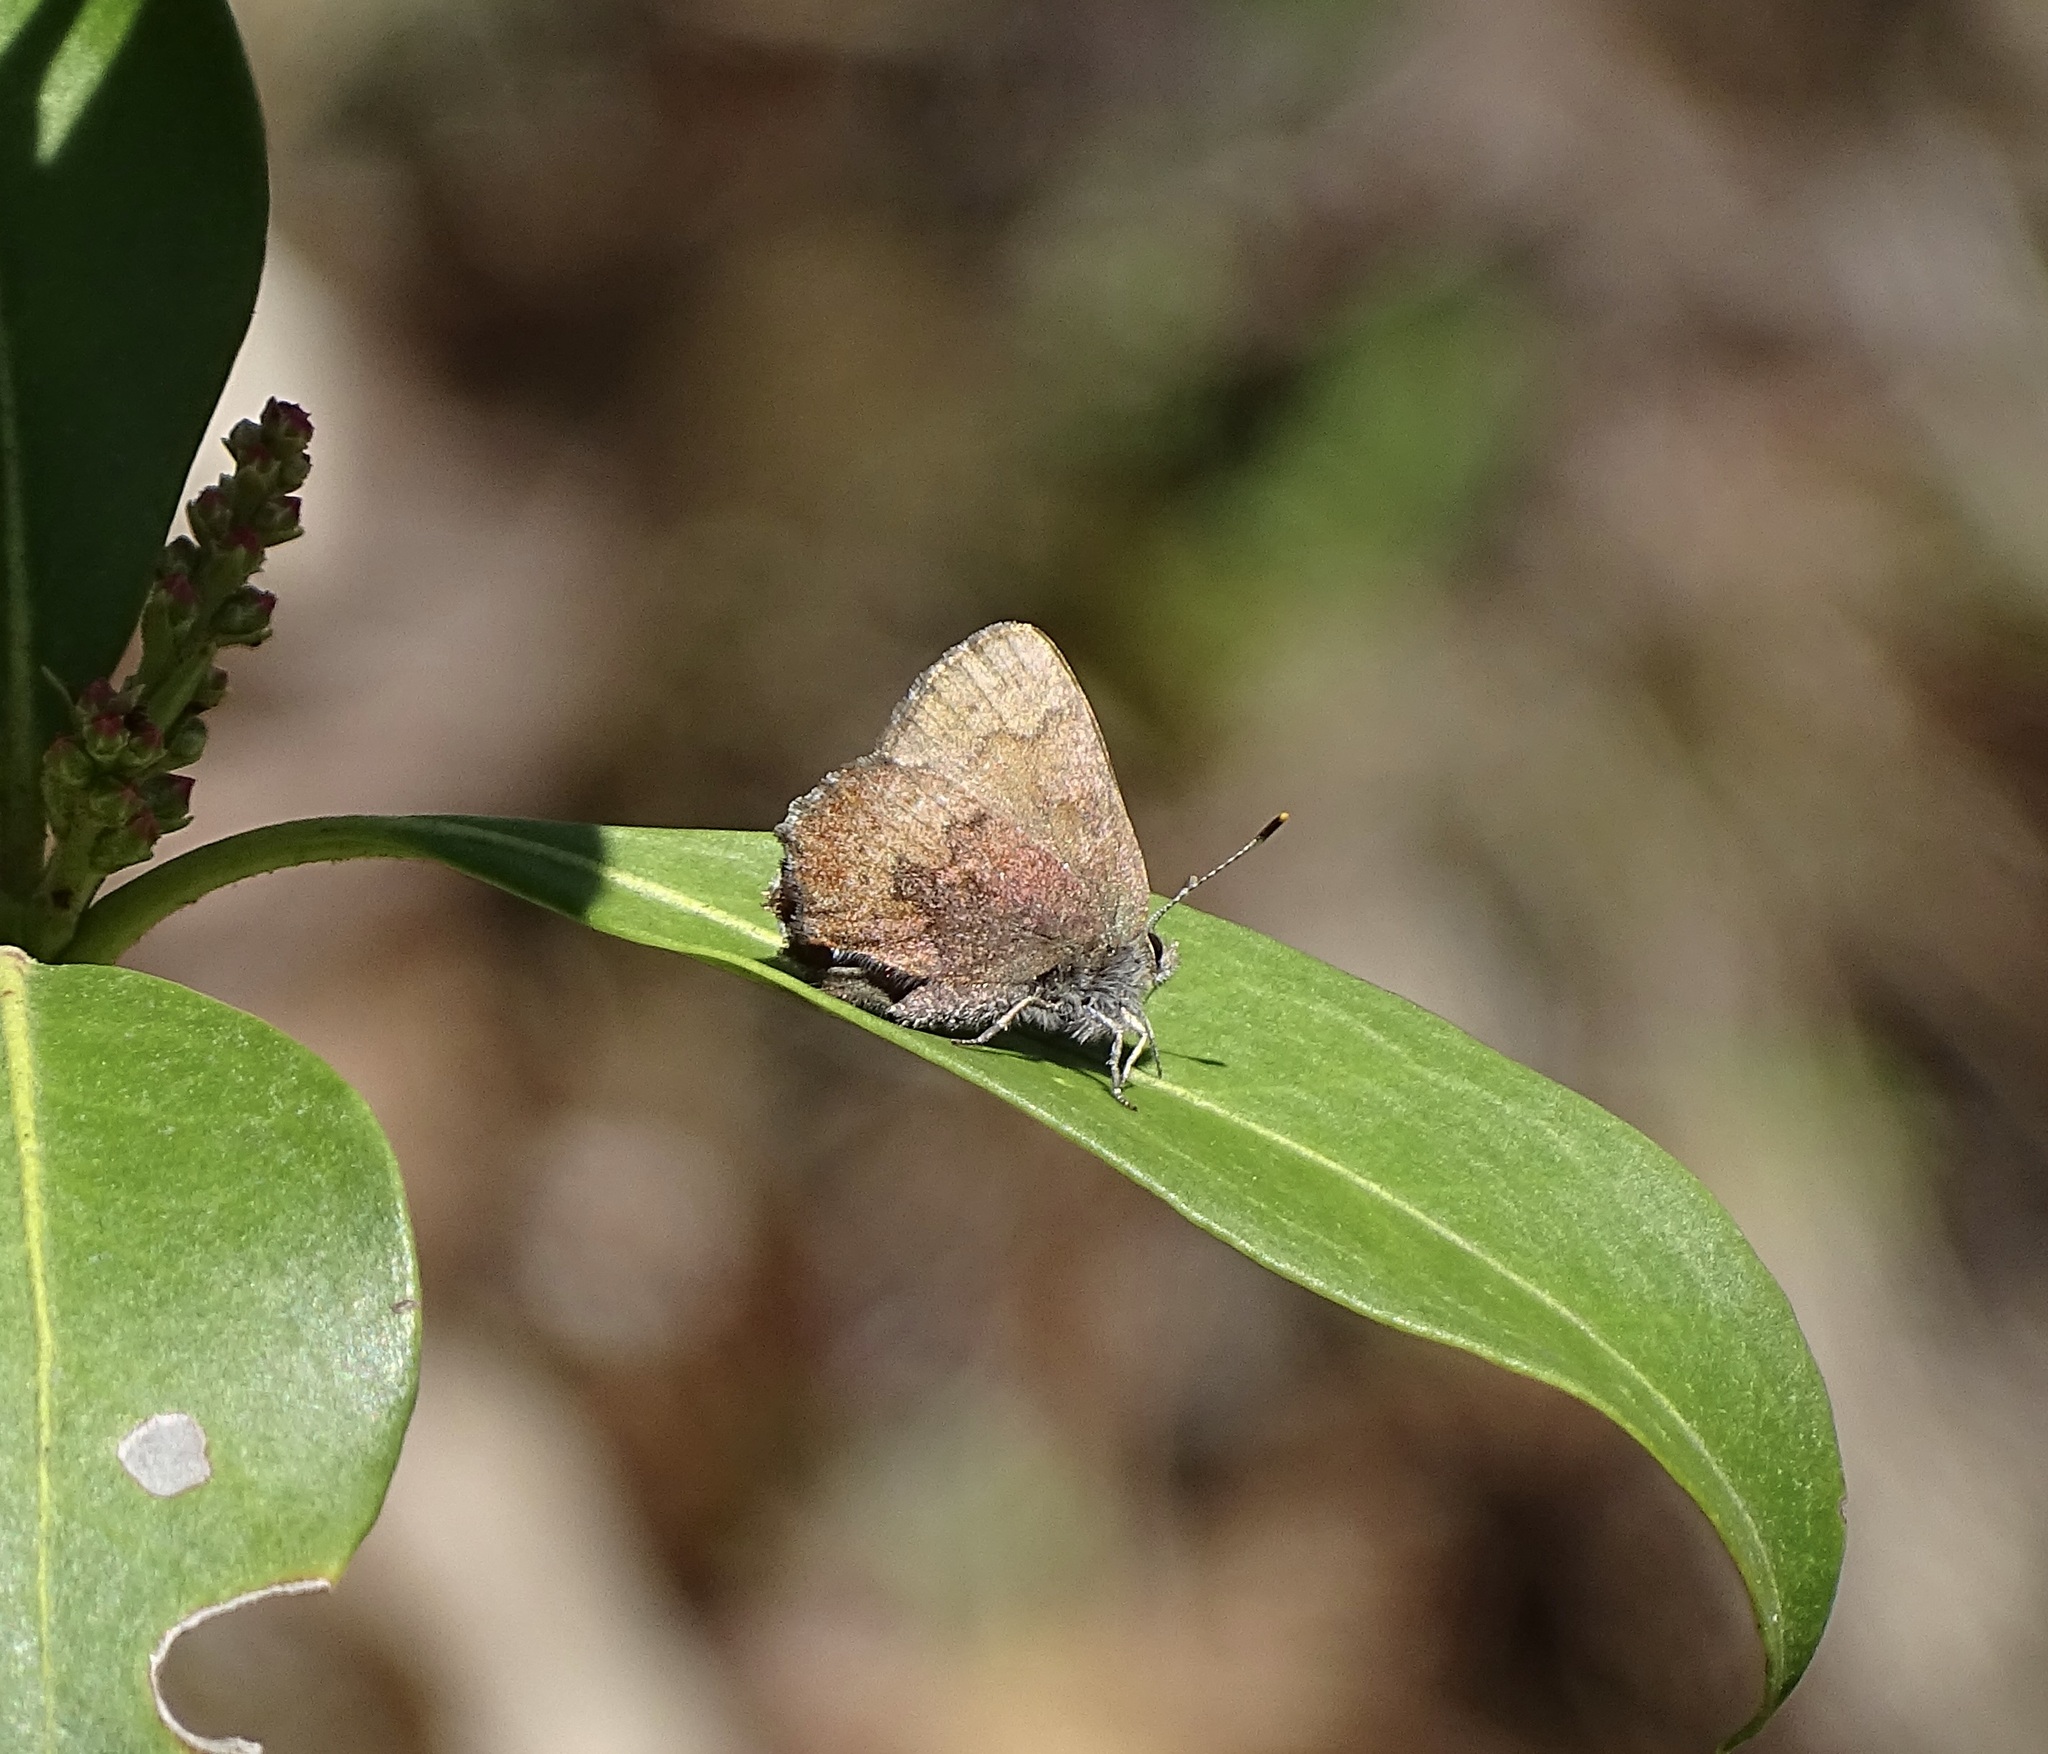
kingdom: Animalia
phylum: Arthropoda
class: Insecta
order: Lepidoptera
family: Lycaenidae
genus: Incisalia
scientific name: Incisalia irioides
